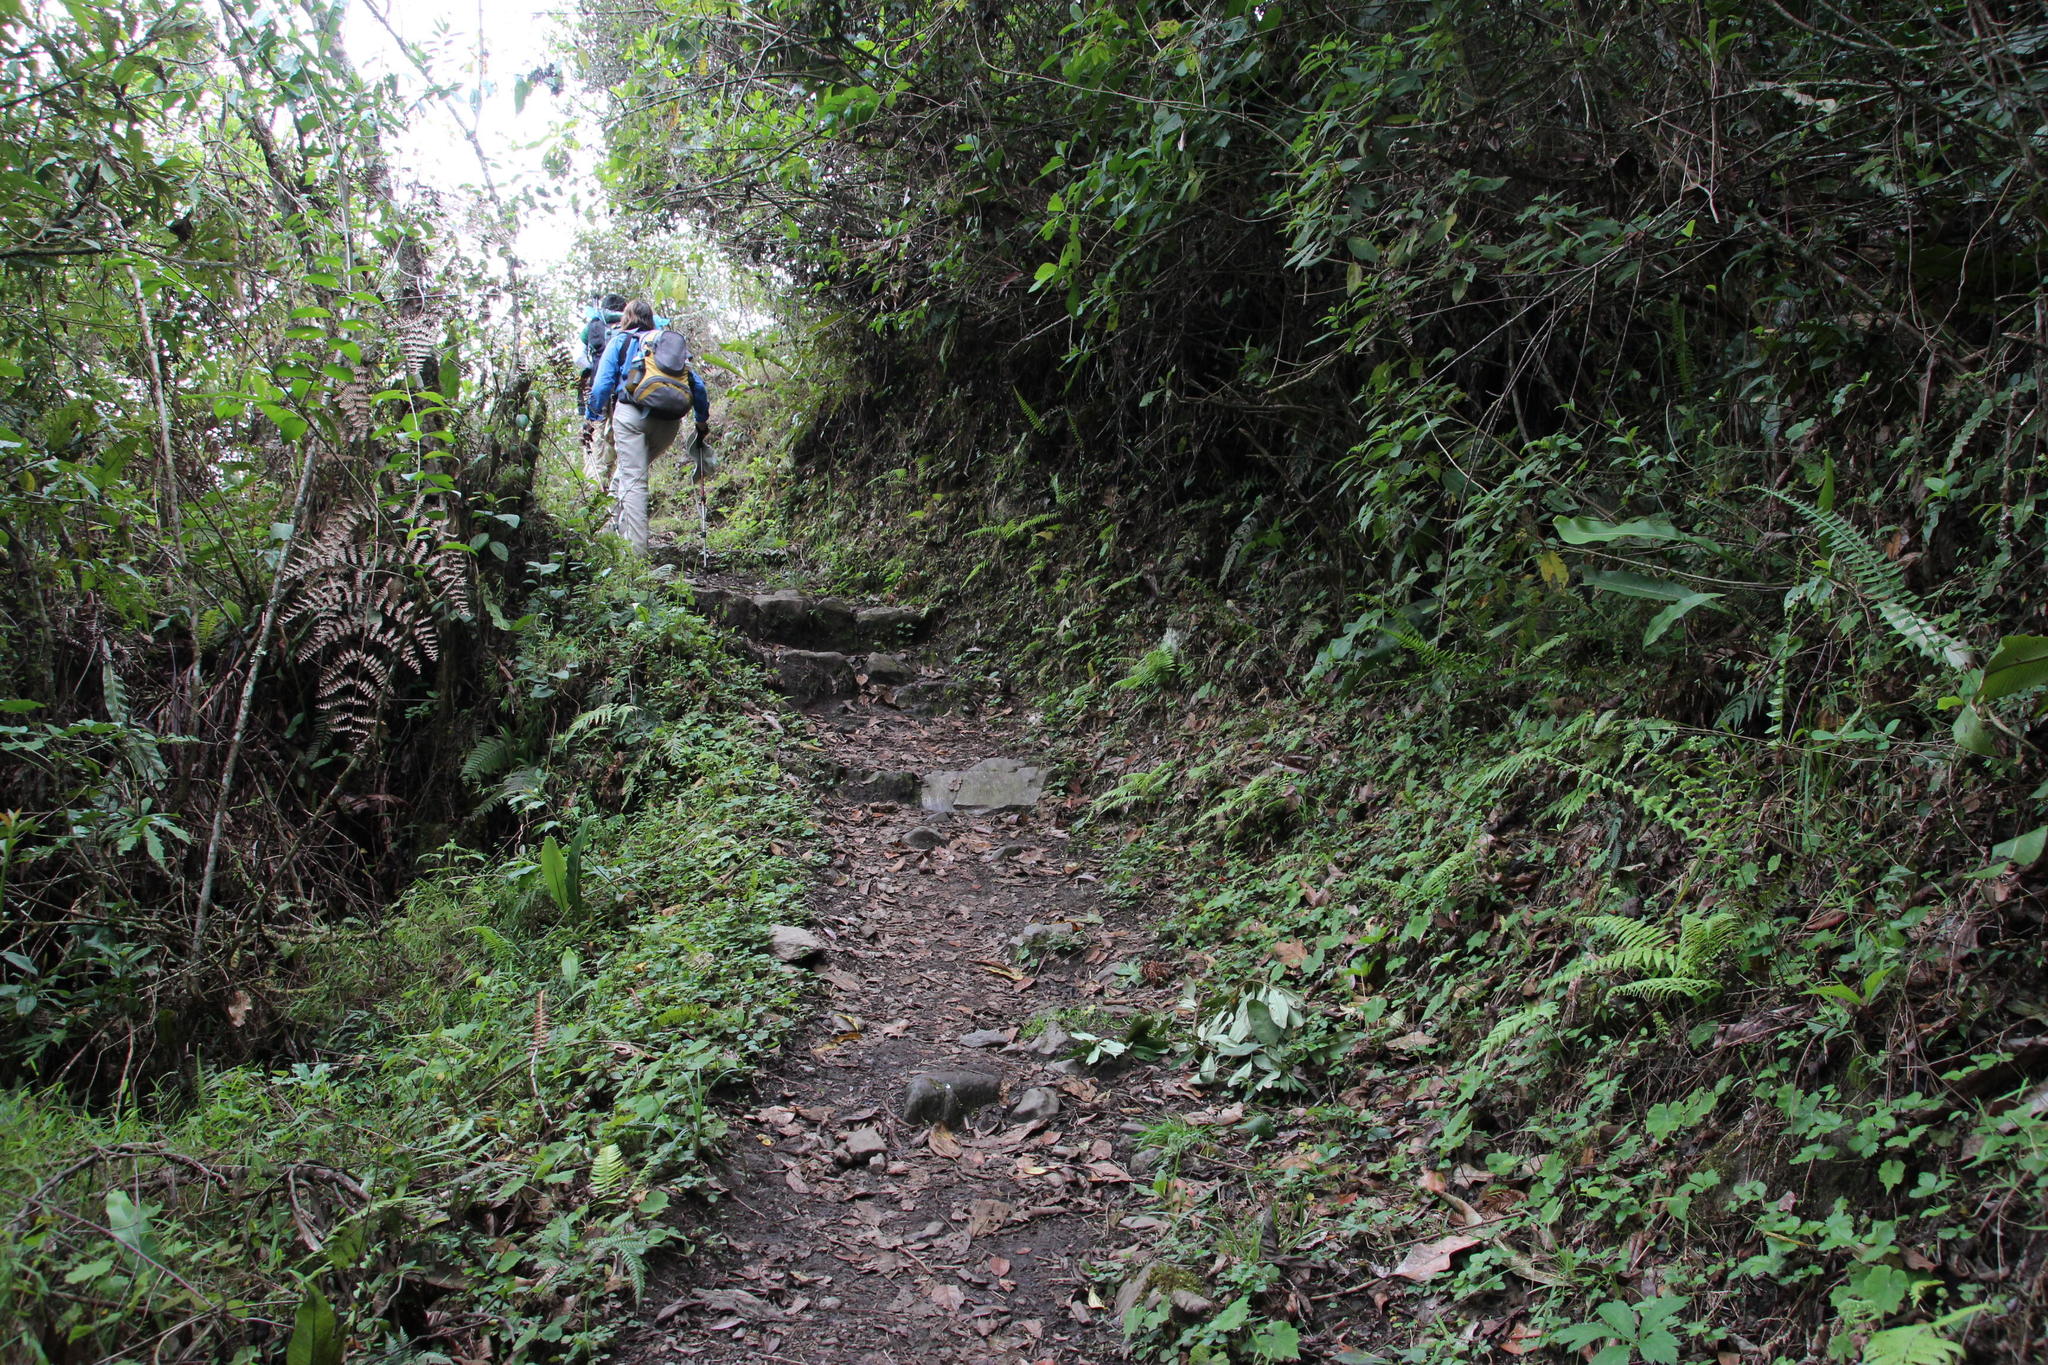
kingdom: Plantae
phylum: Tracheophyta
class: Magnoliopsida
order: Rosales
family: Rosaceae
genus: Fragaria
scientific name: Fragaria vesca
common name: Wild strawberry
